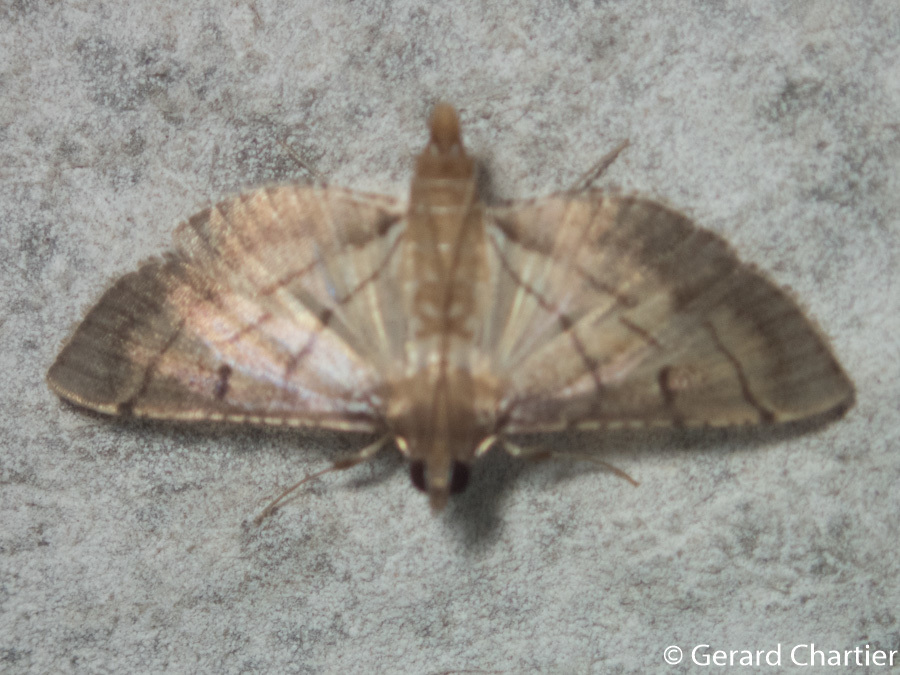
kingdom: Animalia
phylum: Arthropoda
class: Insecta
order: Lepidoptera
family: Crambidae
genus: Cnaphalocrocis
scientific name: Cnaphalocrocis poeyalis
